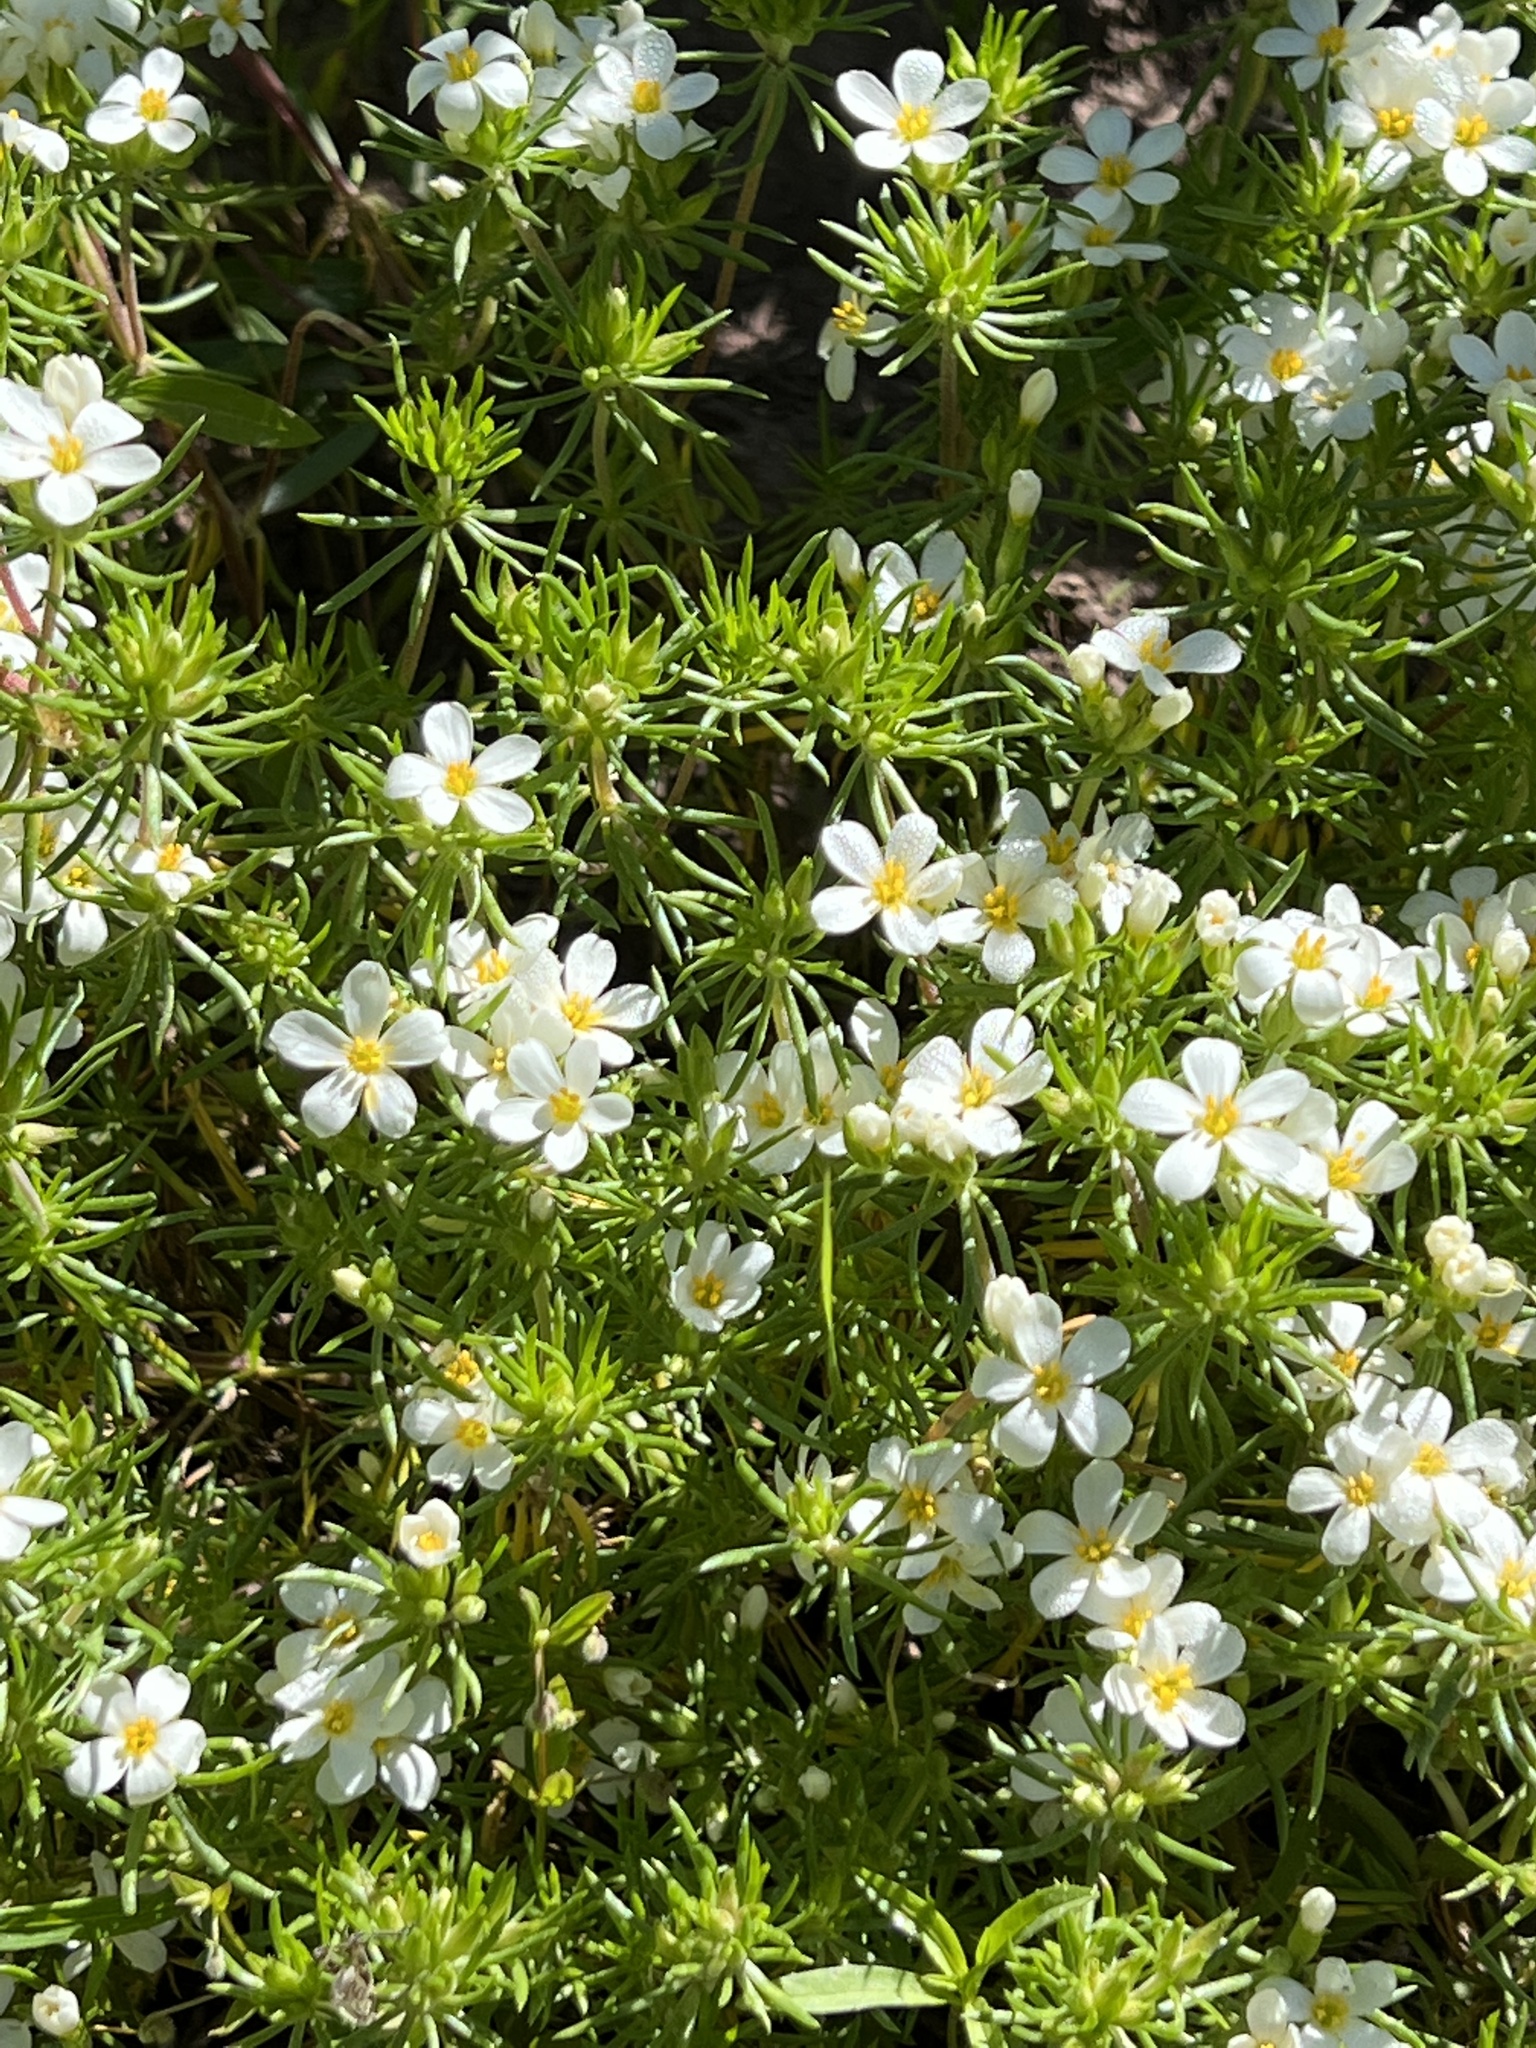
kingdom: Plantae
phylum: Tracheophyta
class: Magnoliopsida
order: Ericales
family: Polemoniaceae
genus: Leptosiphon
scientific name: Leptosiphon nuttallii
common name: Nuttall's linanthus
